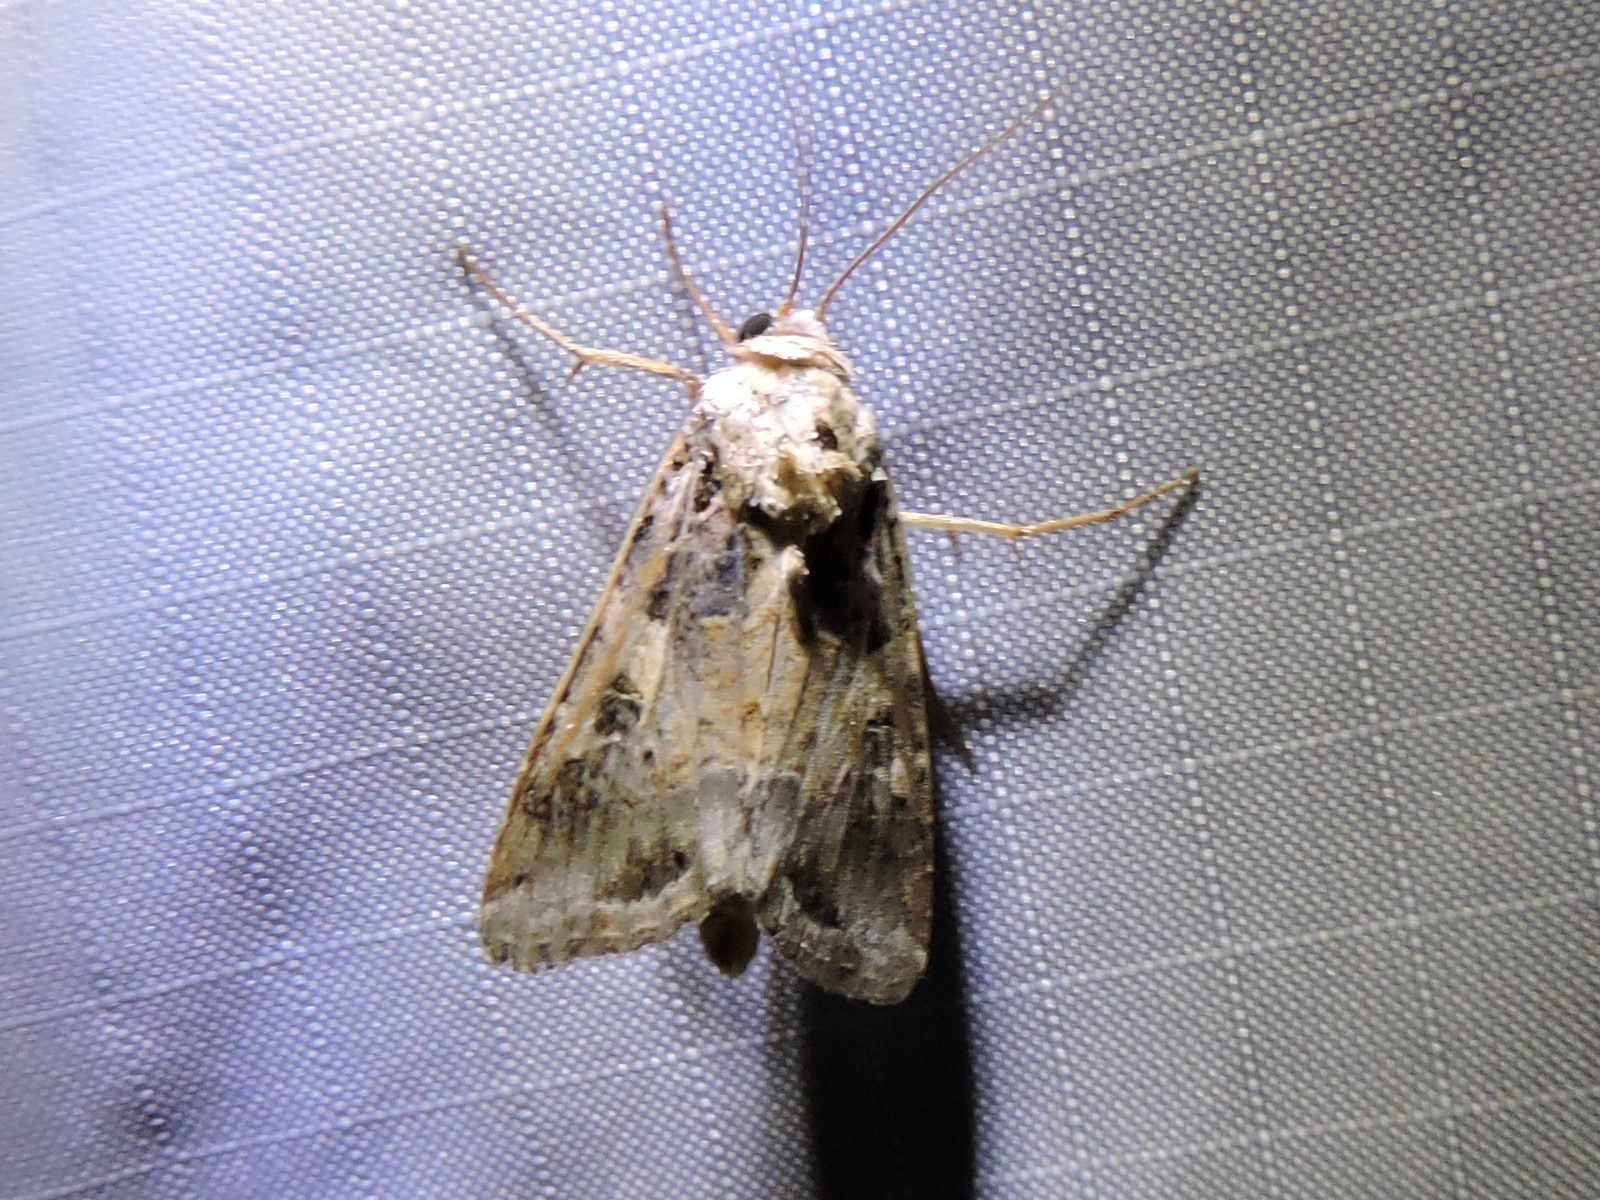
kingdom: Animalia
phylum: Arthropoda
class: Insecta
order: Lepidoptera
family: Noctuidae
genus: Spodoptera
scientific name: Spodoptera ornithogalli
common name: Yellow-striped armyworm
